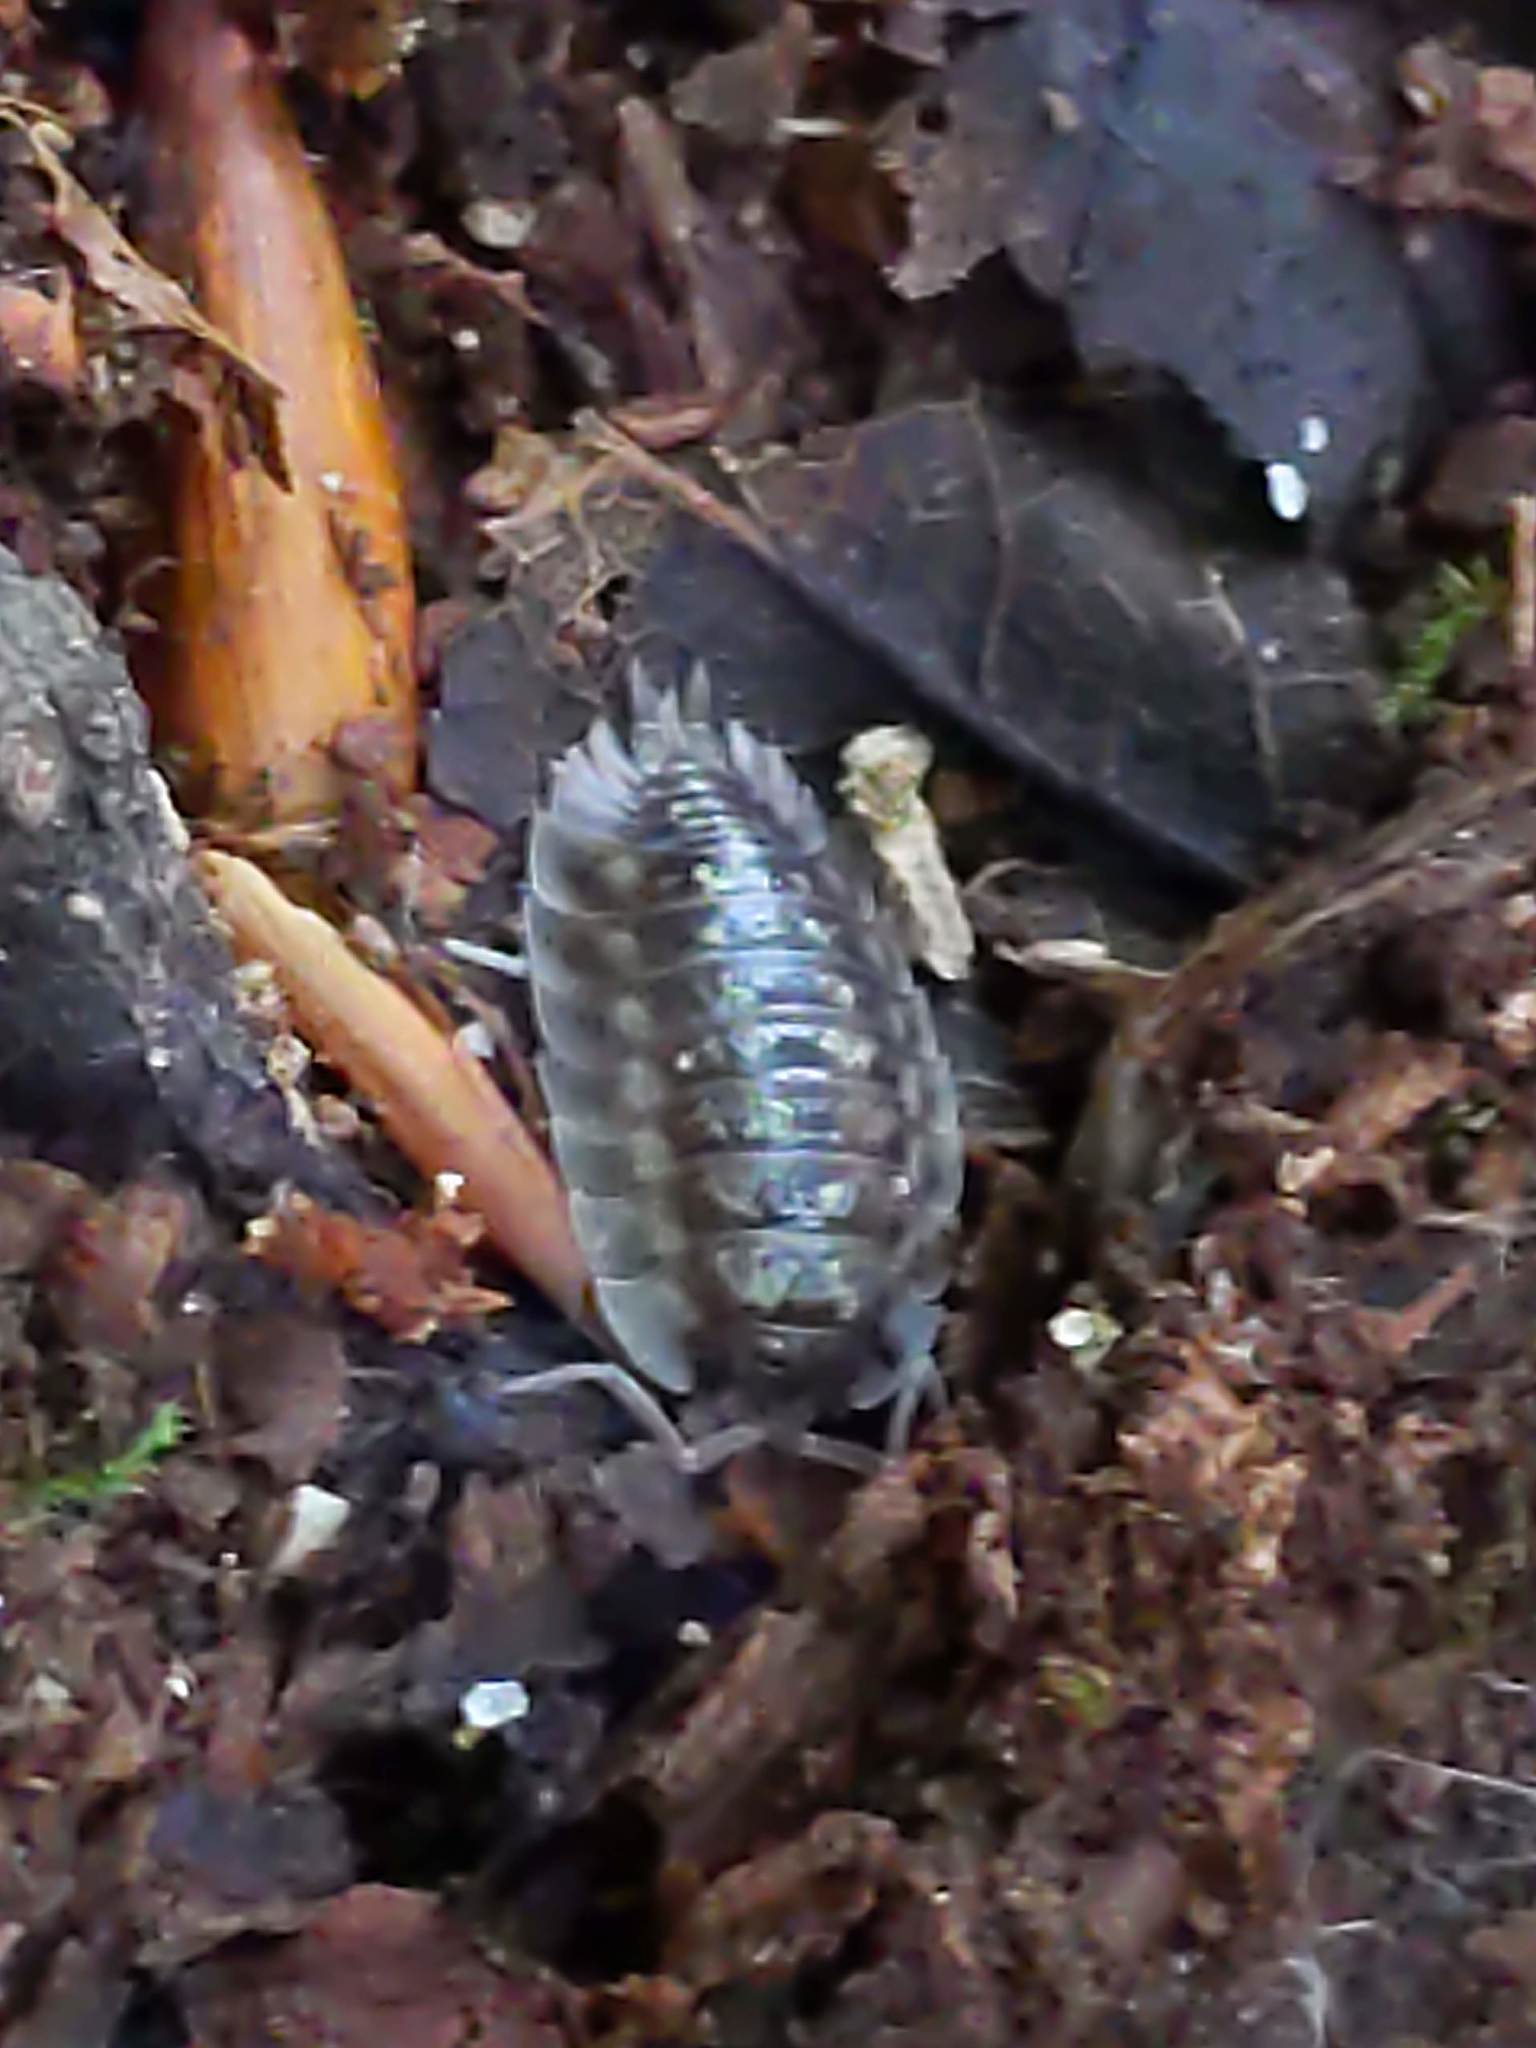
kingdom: Animalia
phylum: Arthropoda
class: Malacostraca
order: Isopoda
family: Oniscidae
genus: Oniscus
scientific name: Oniscus asellus
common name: Common shiny woodlouse
